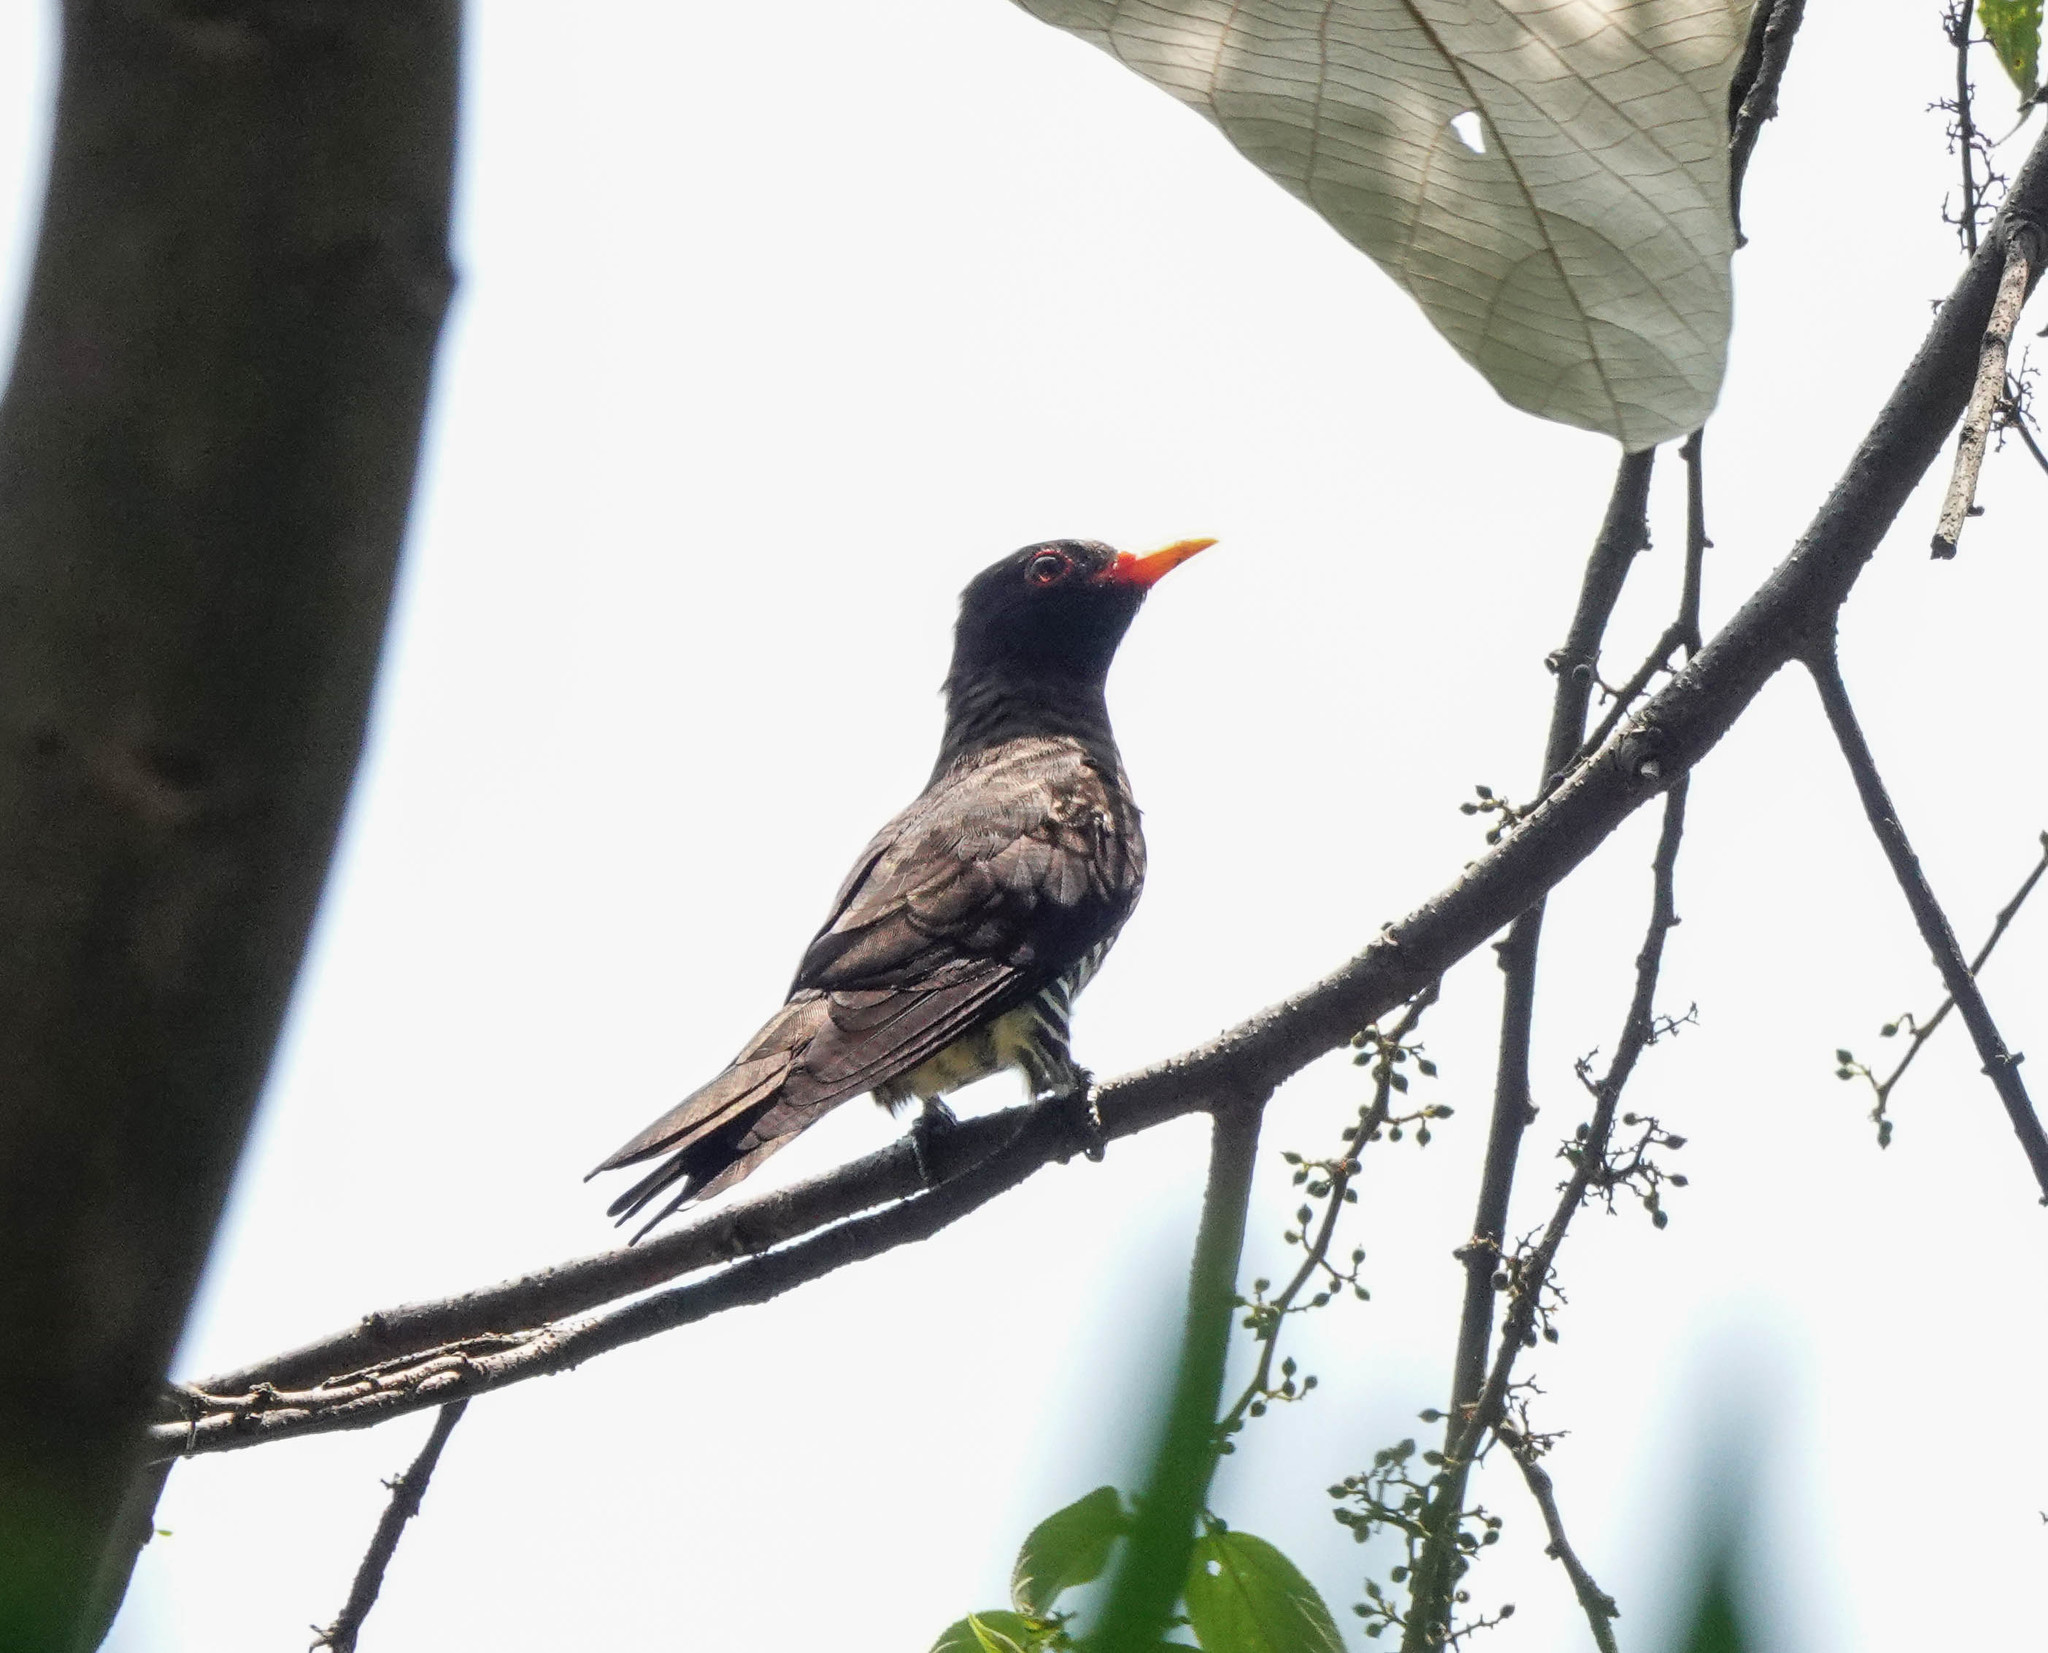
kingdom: Animalia
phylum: Chordata
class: Aves
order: Cuculiformes
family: Cuculidae
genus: Chrysococcyx
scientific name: Chrysococcyx xanthorhynchus
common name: Violet cuckoo
